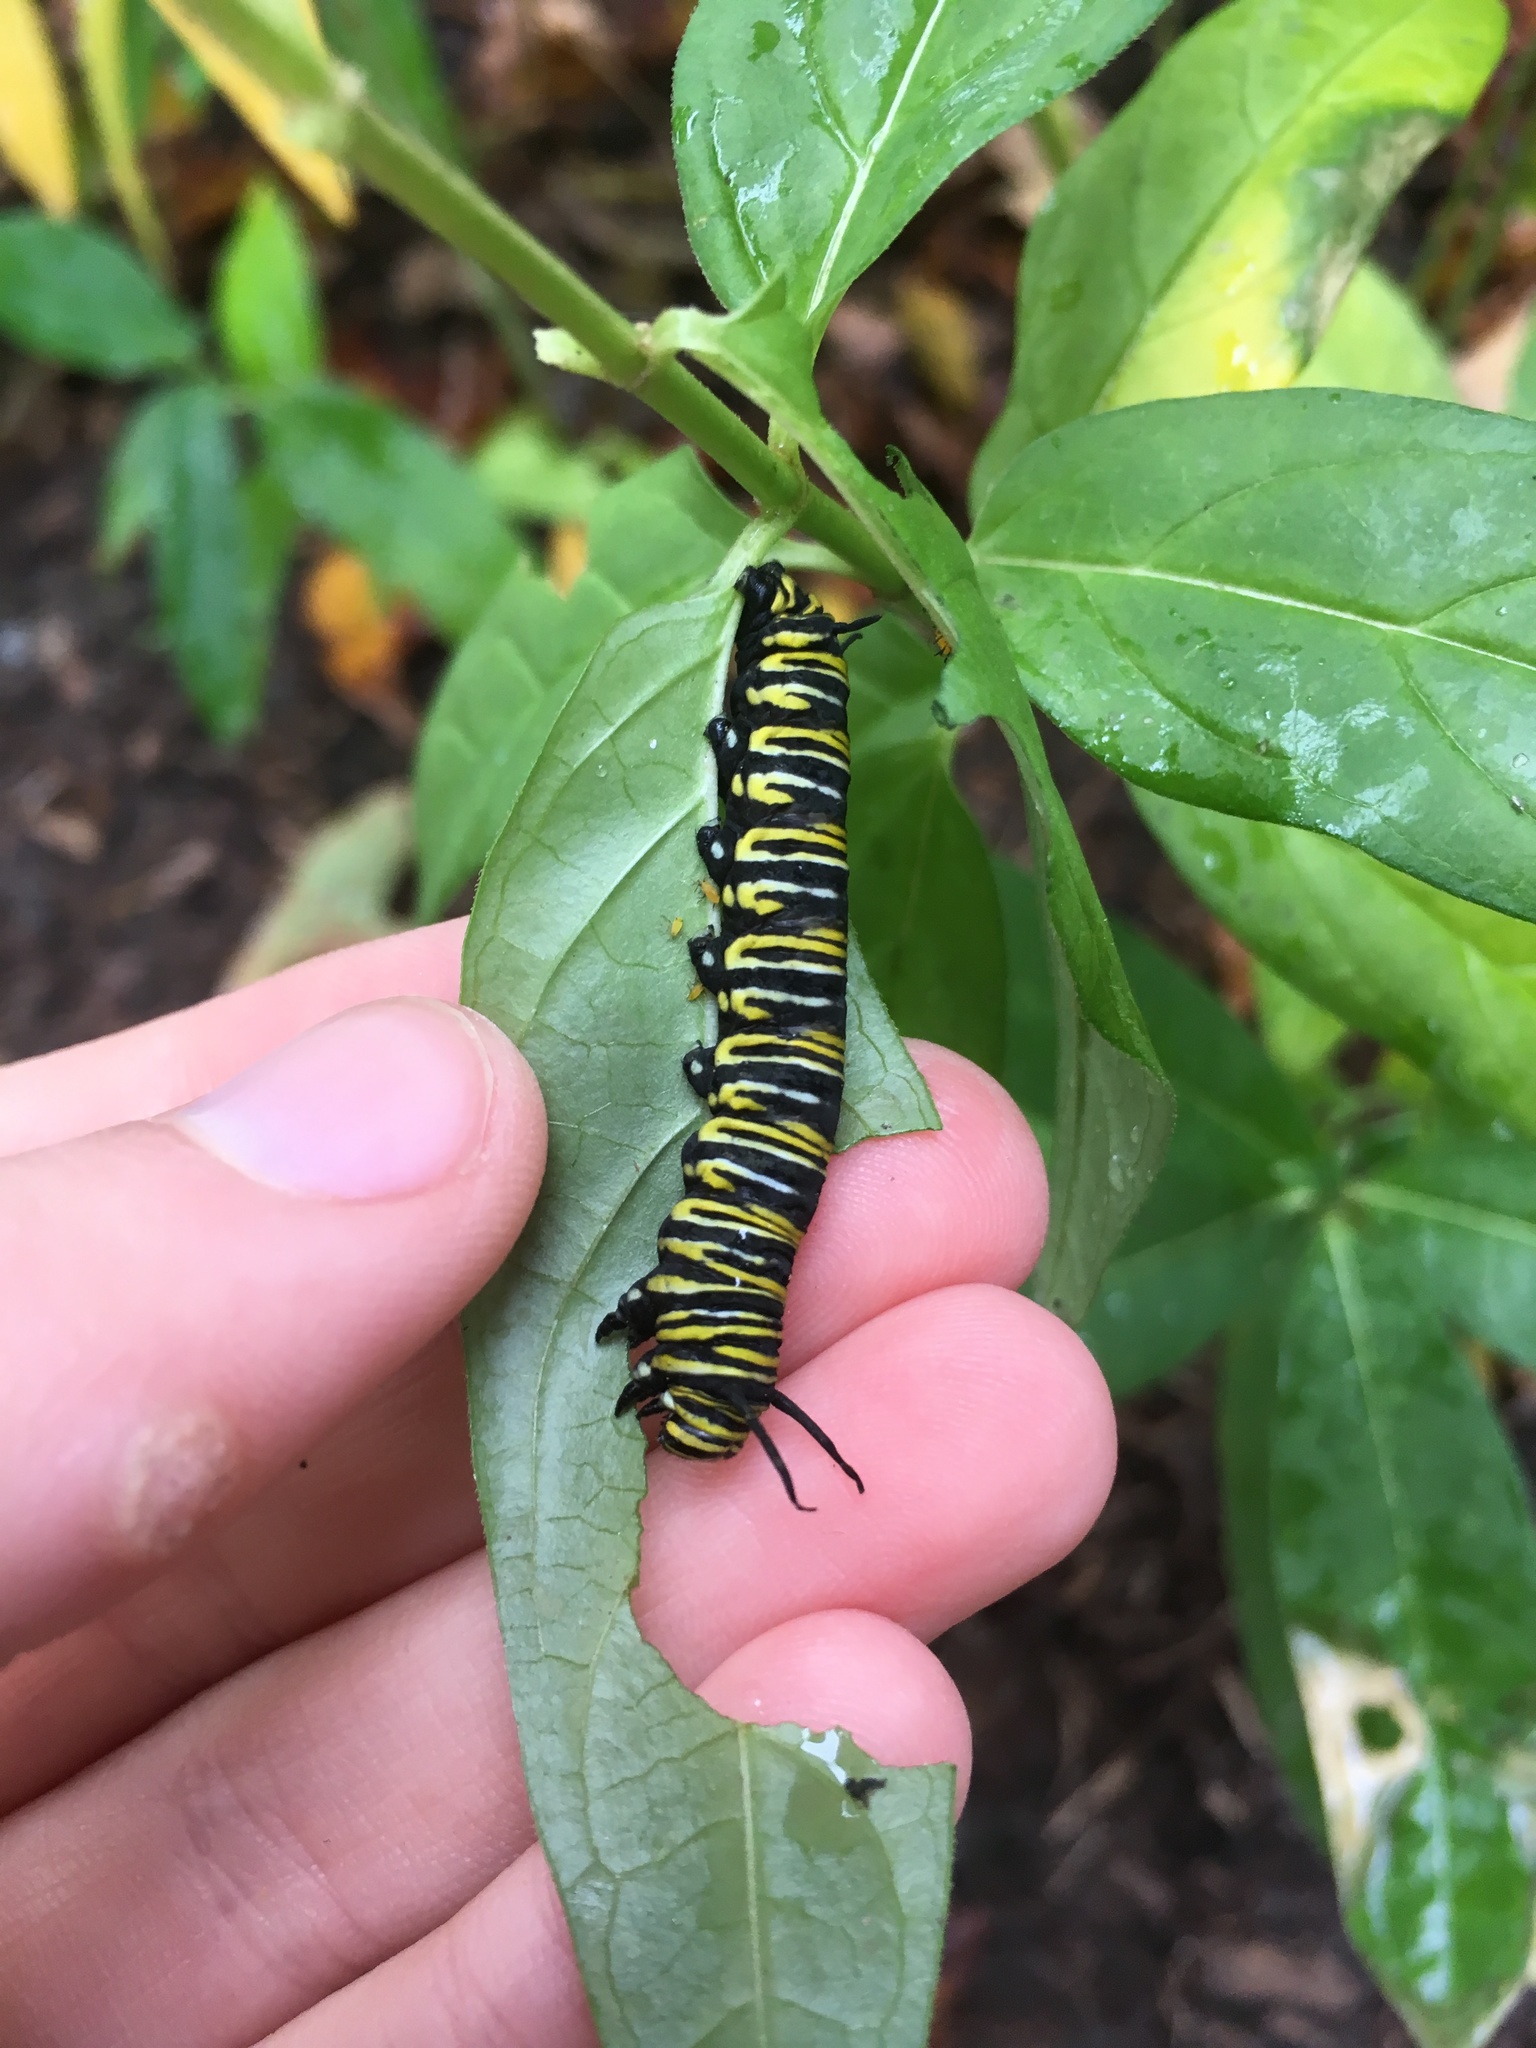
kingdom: Animalia
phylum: Arthropoda
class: Insecta
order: Lepidoptera
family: Nymphalidae
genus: Danaus
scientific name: Danaus plexippus
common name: Monarch
